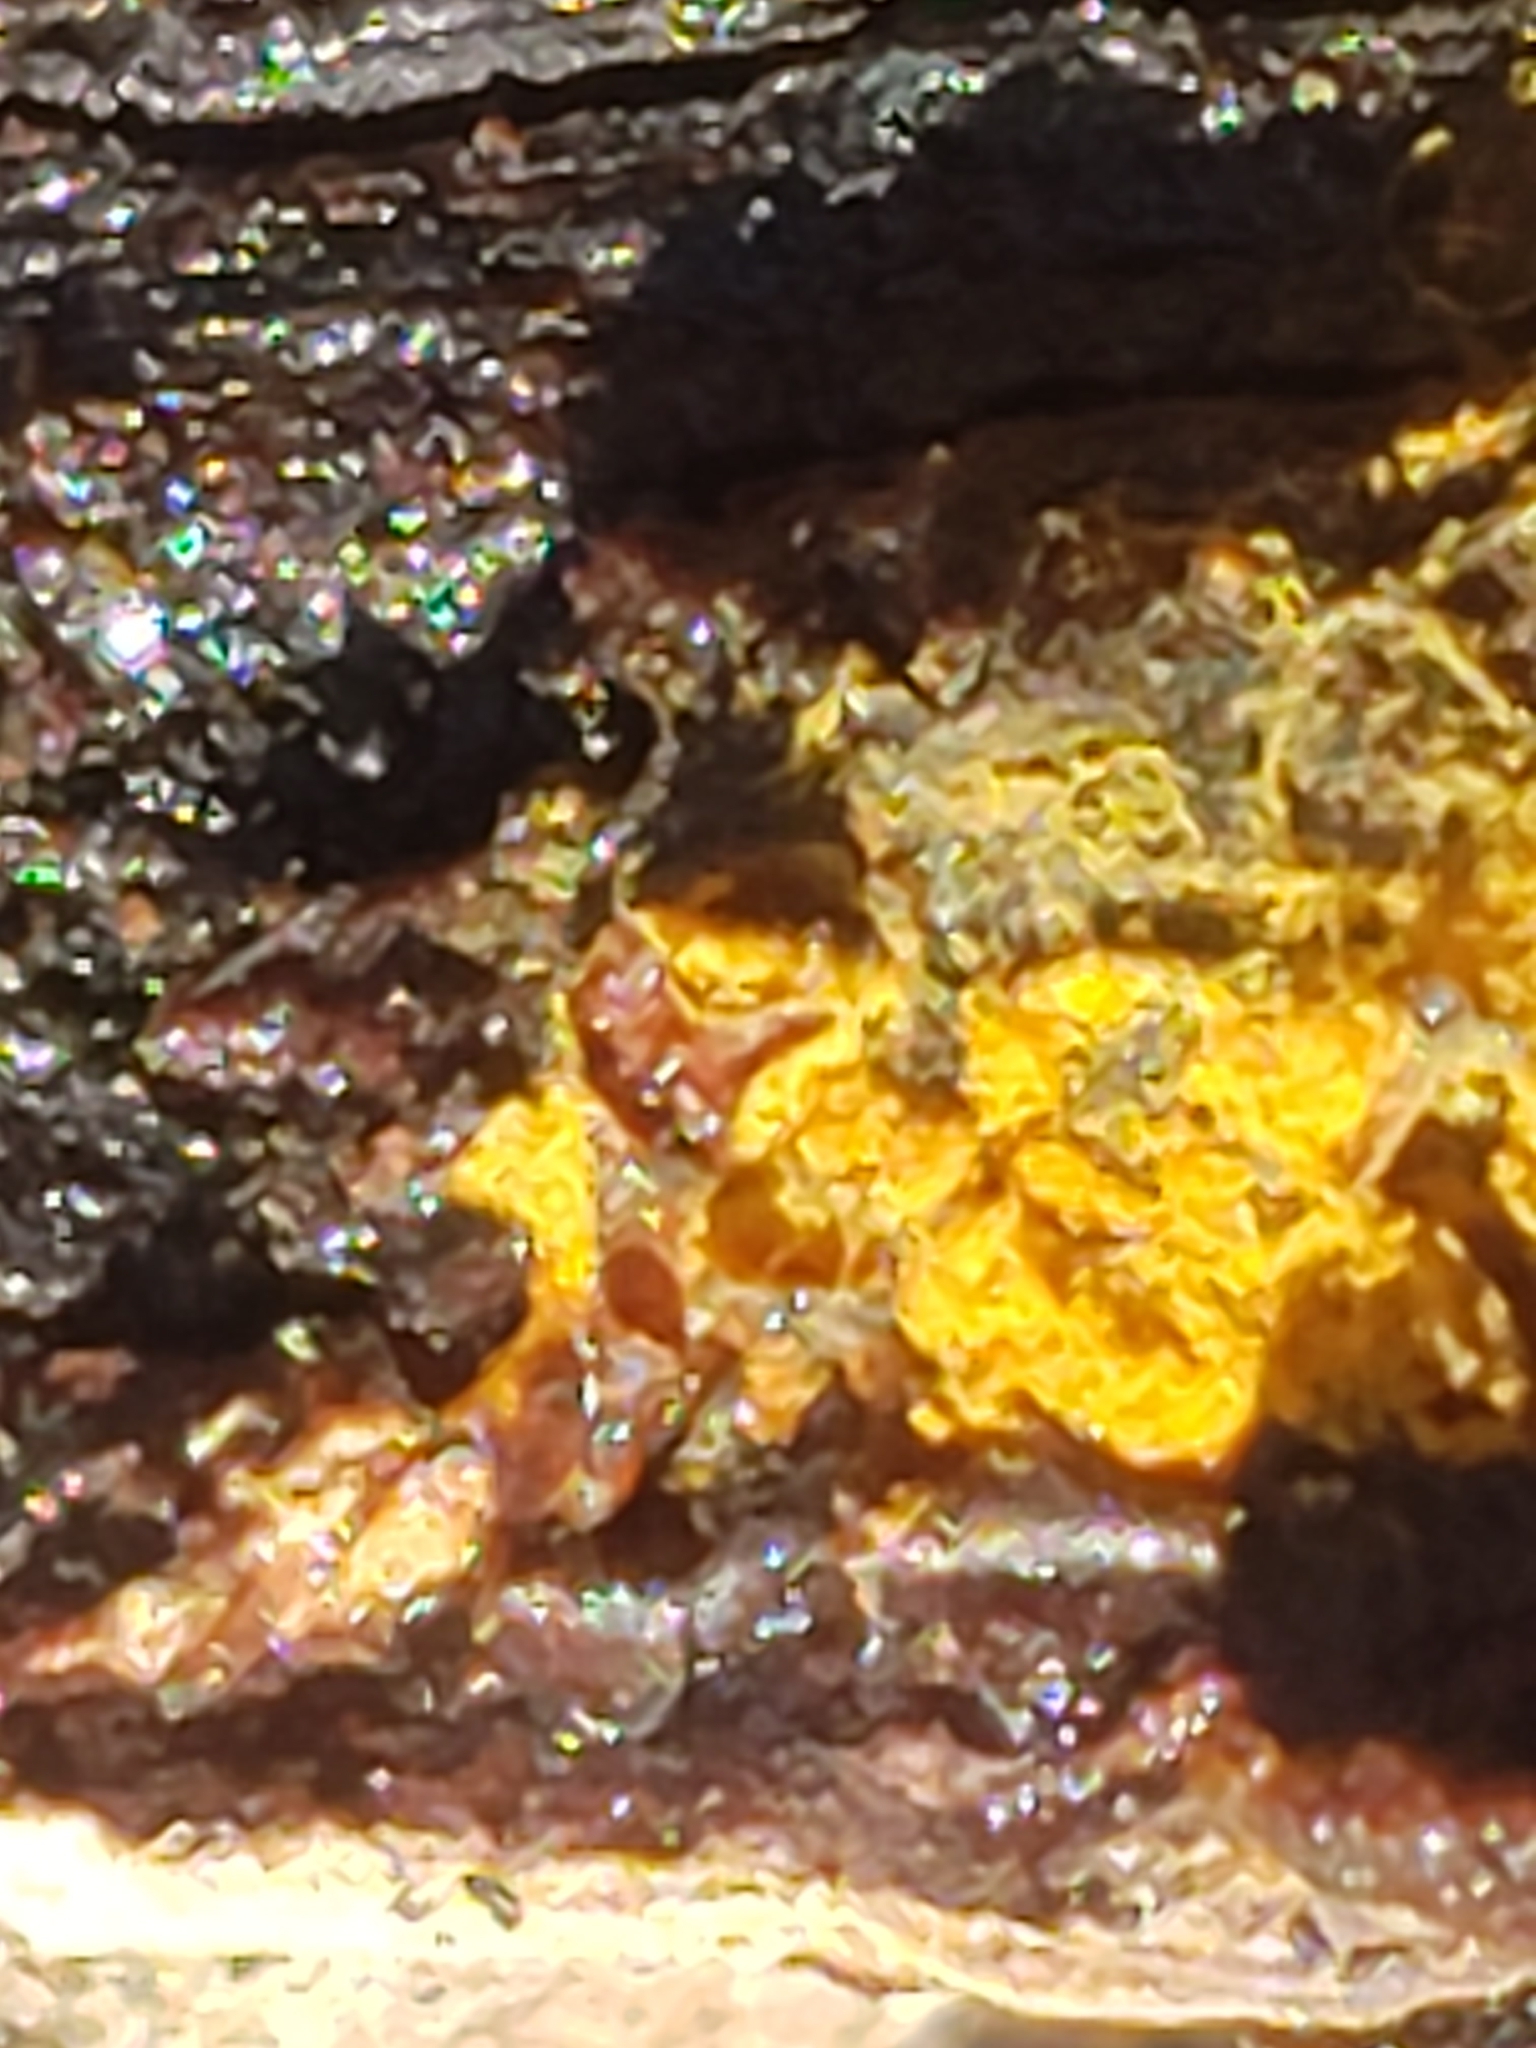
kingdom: Protozoa
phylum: Mycetozoa
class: Myxomycetes
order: Trichiales
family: Trichiaceae
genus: Perichaena
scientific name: Perichaena depressa
